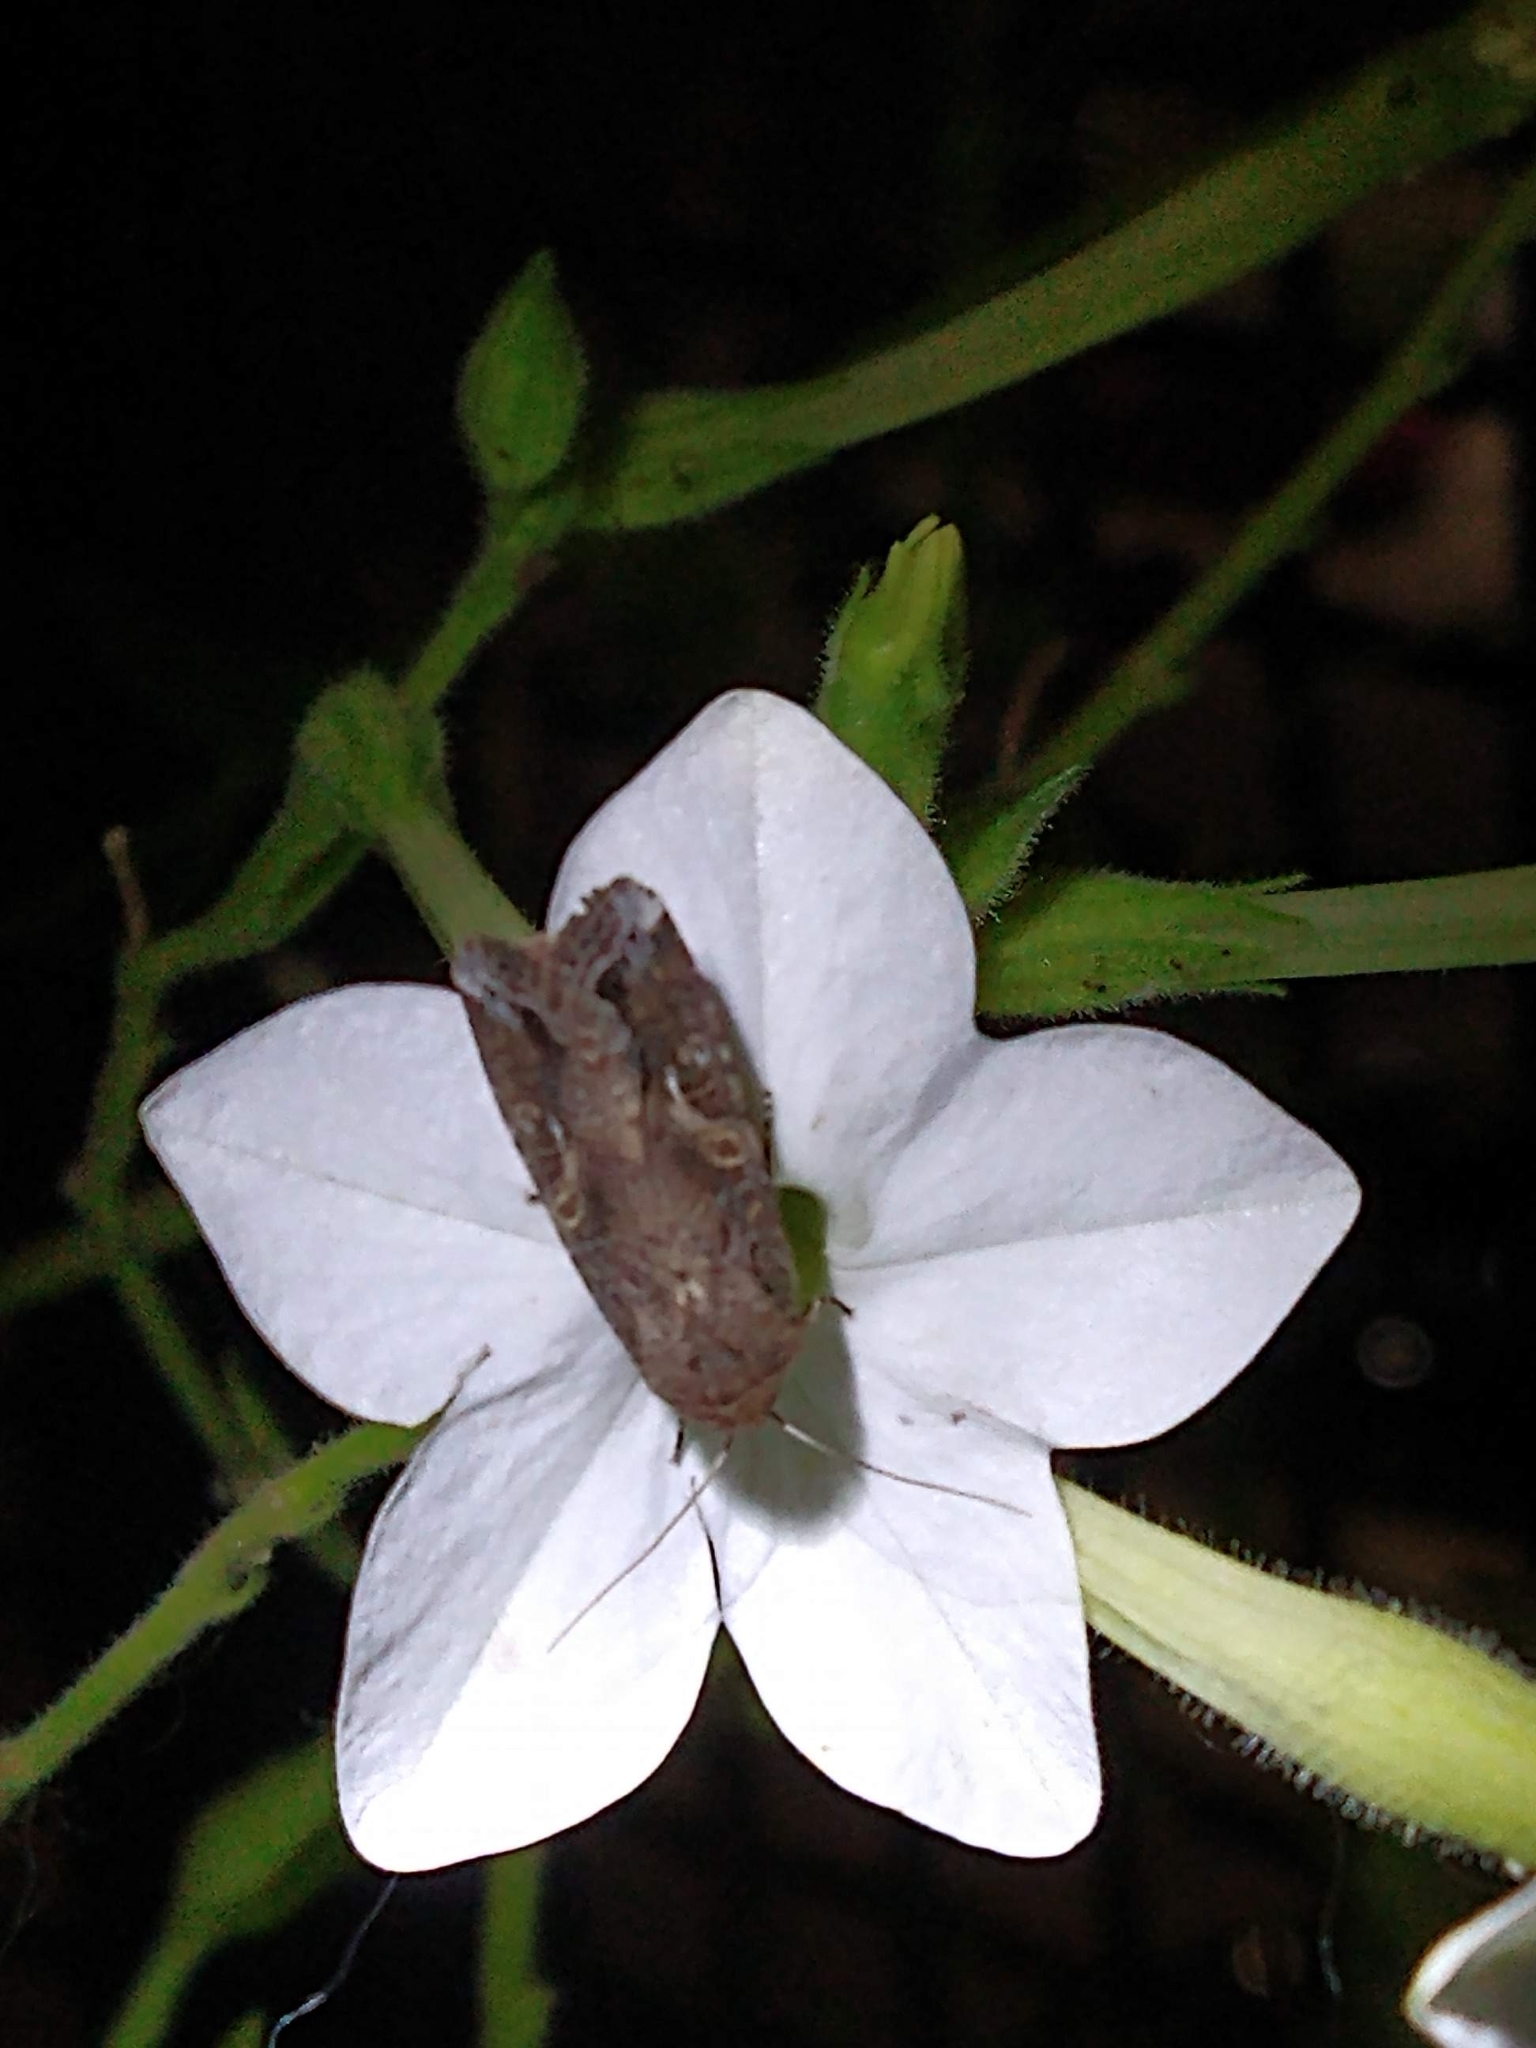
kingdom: Animalia
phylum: Arthropoda
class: Insecta
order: Lepidoptera
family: Noctuidae
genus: Spodoptera
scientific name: Spodoptera frugiperda
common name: Fall armyworm
